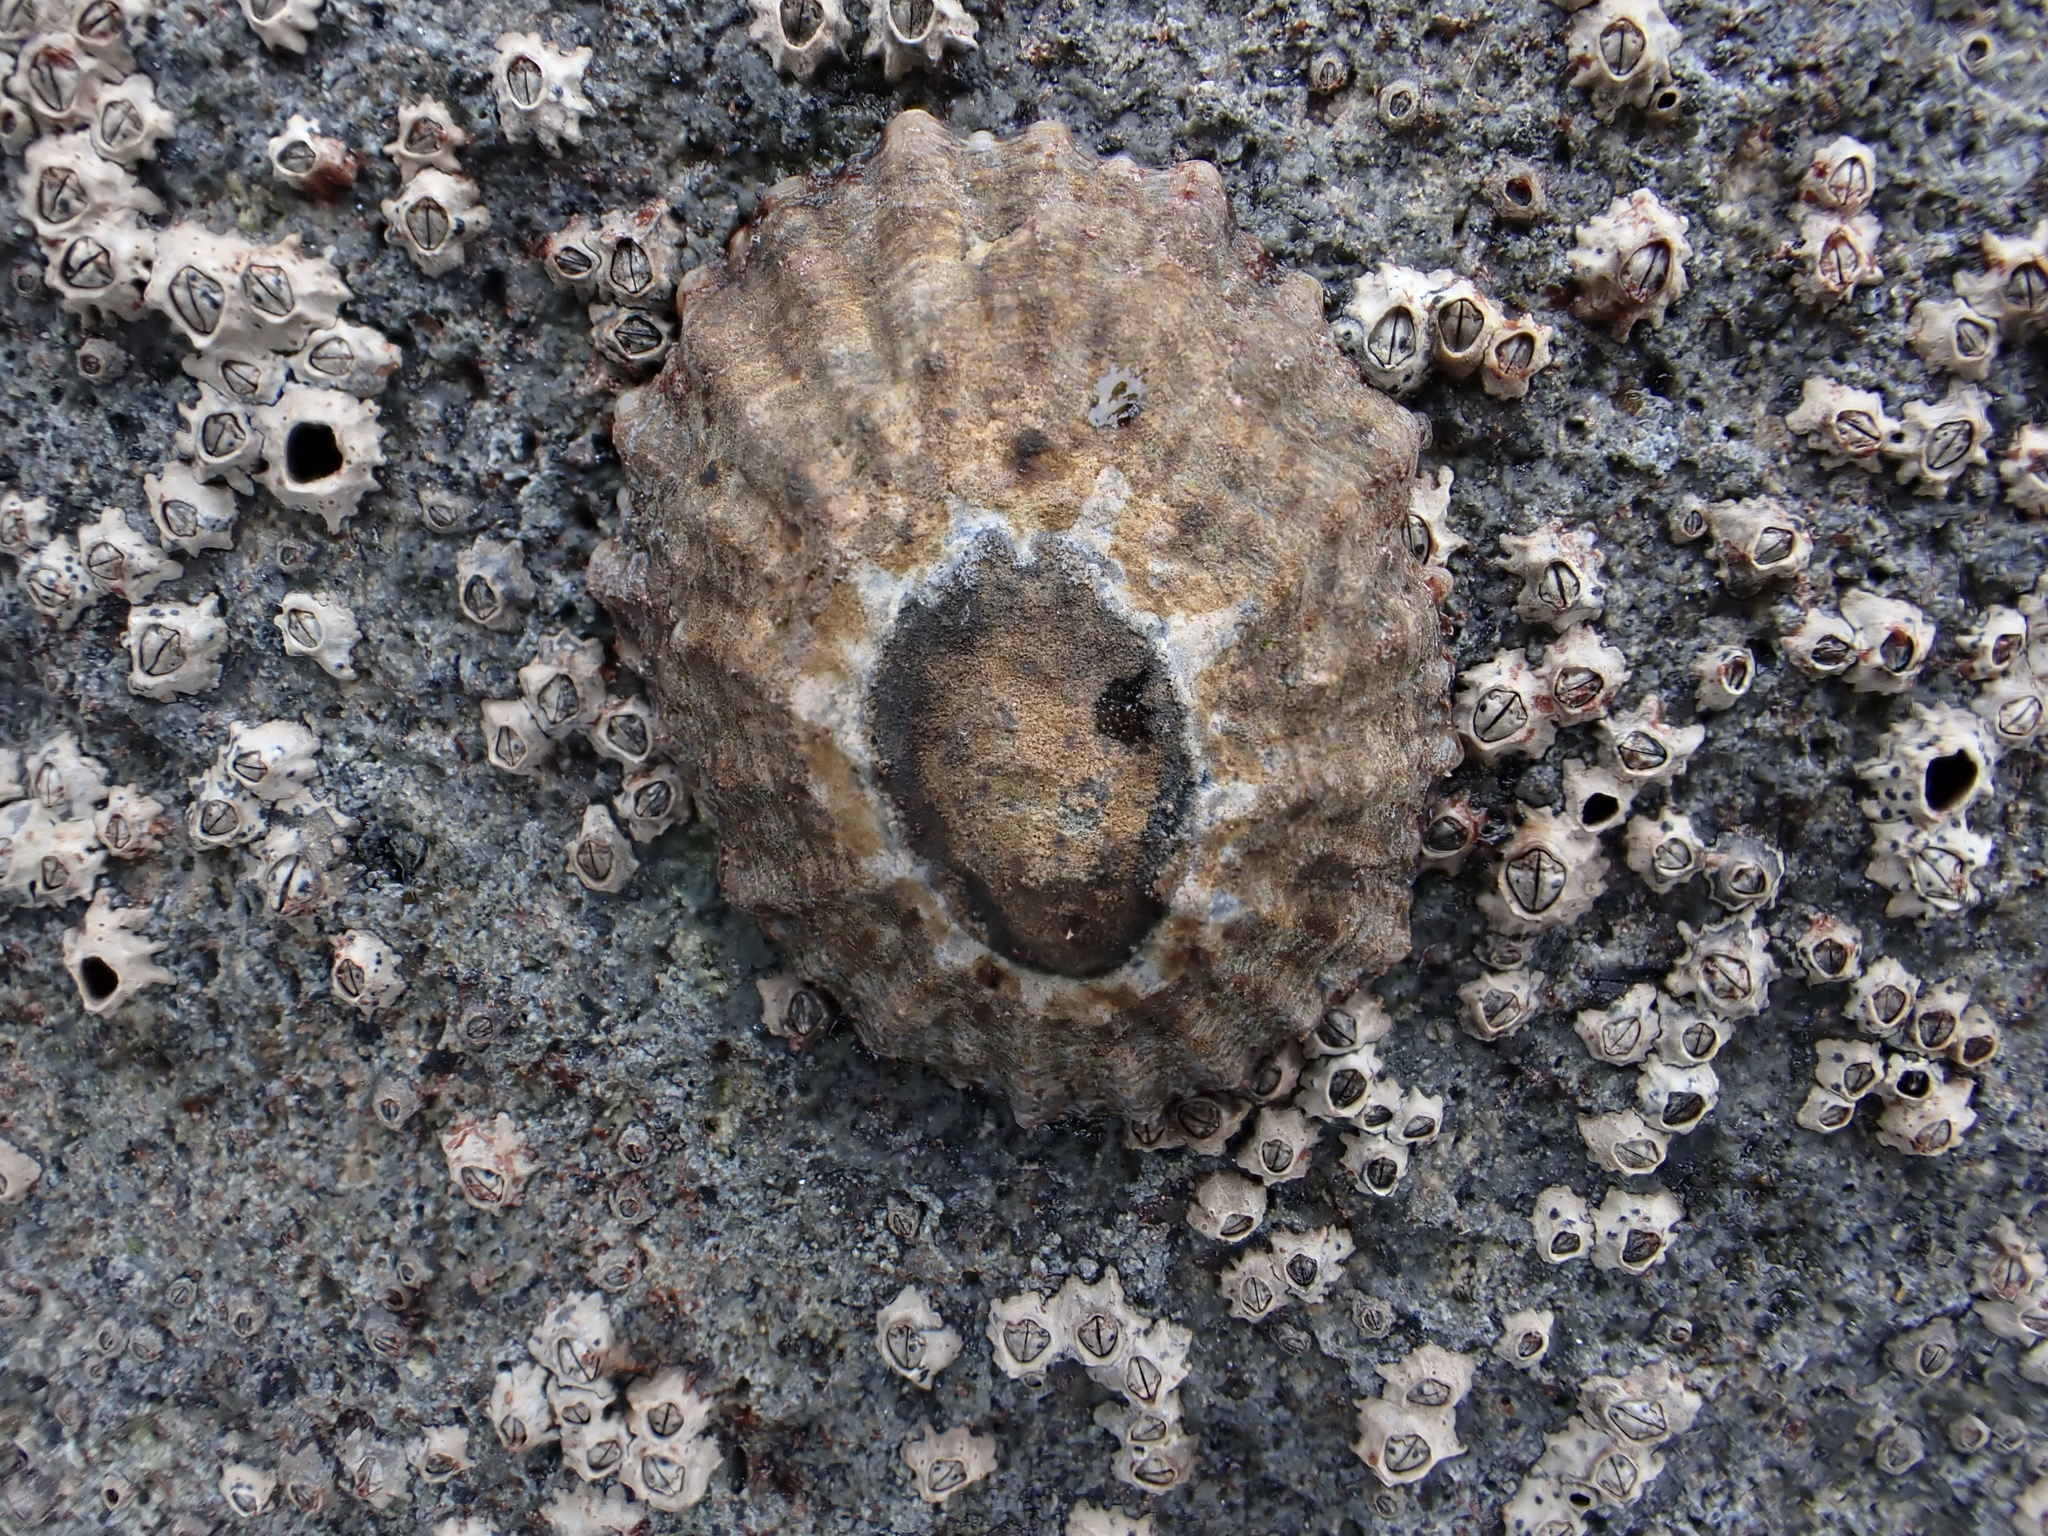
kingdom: Animalia
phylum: Mollusca
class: Gastropoda
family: Nacellidae
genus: Cellana
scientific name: Cellana ornata
